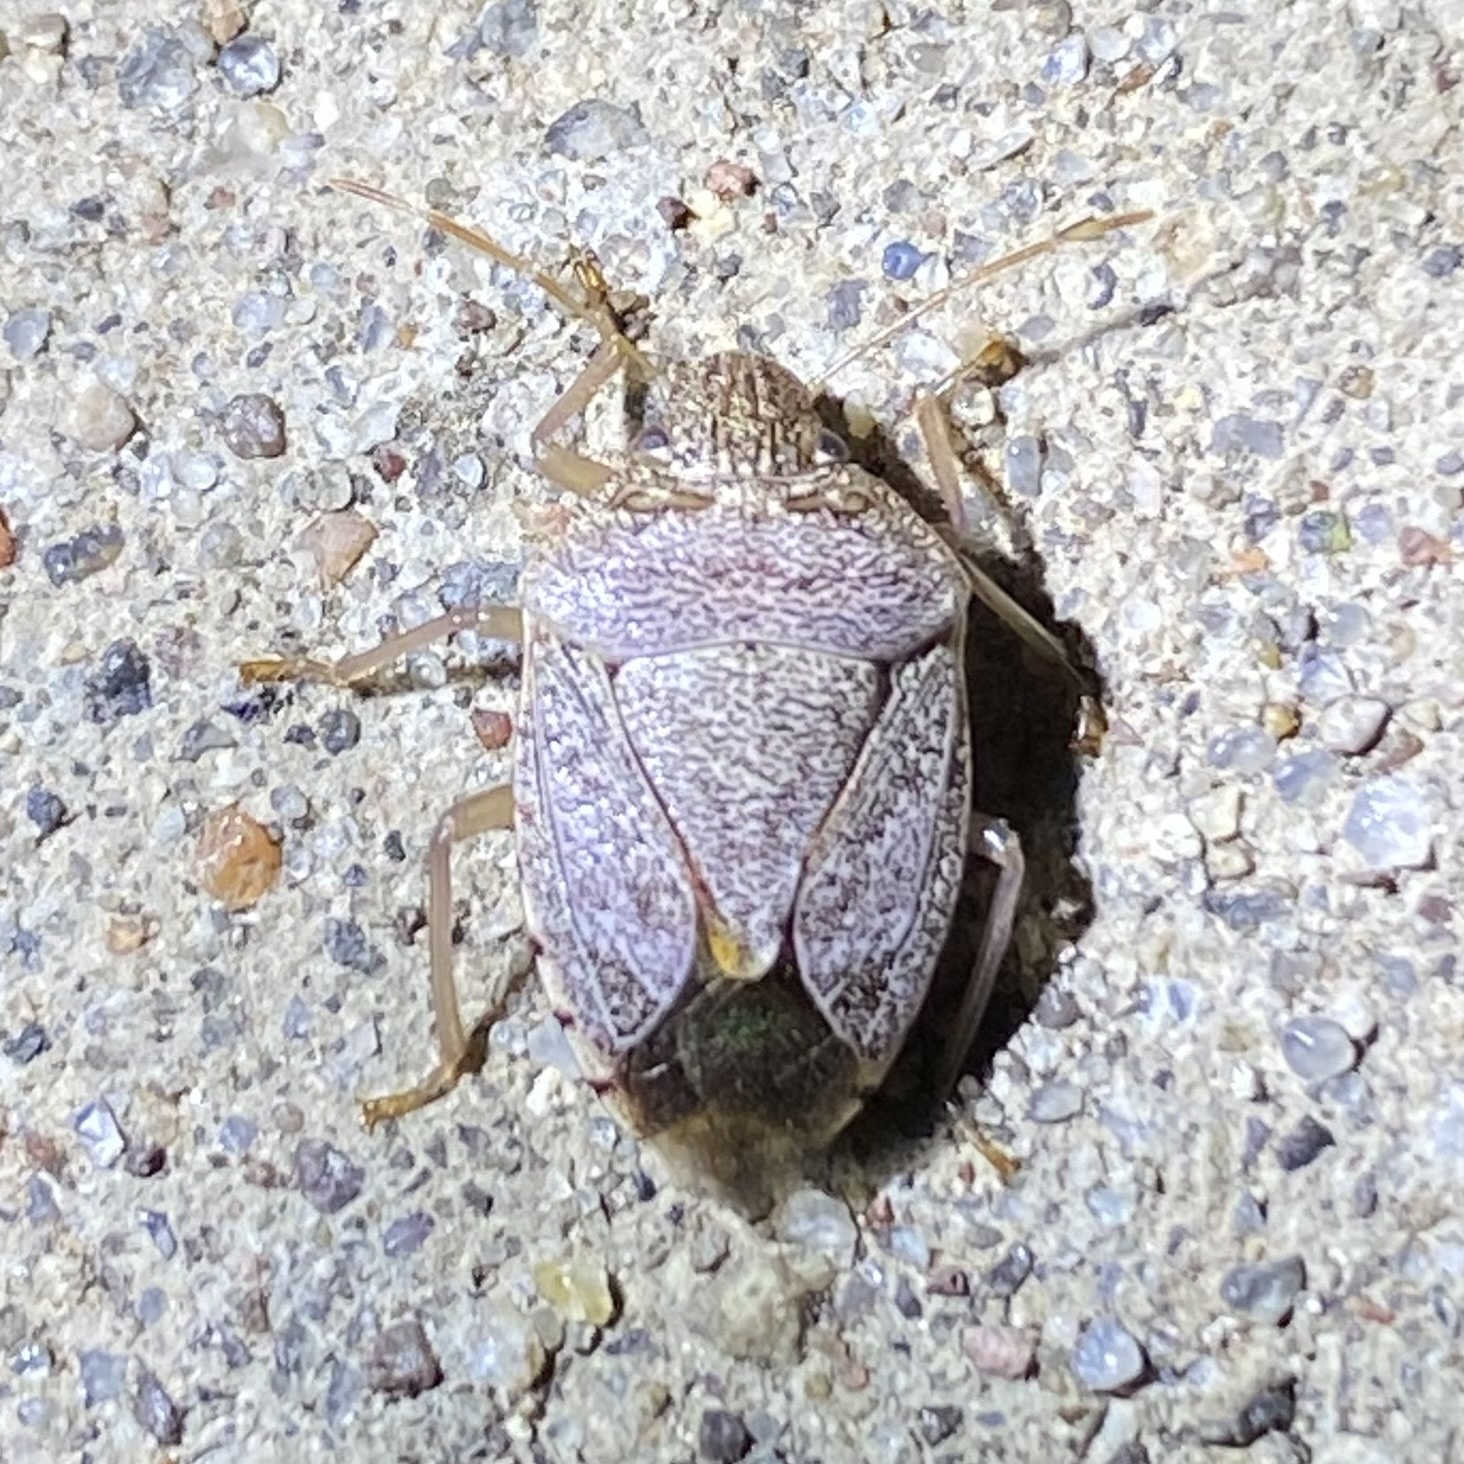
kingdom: Animalia
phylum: Arthropoda
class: Insecta
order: Hemiptera
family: Pentatomidae
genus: Banasa
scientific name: Banasa
